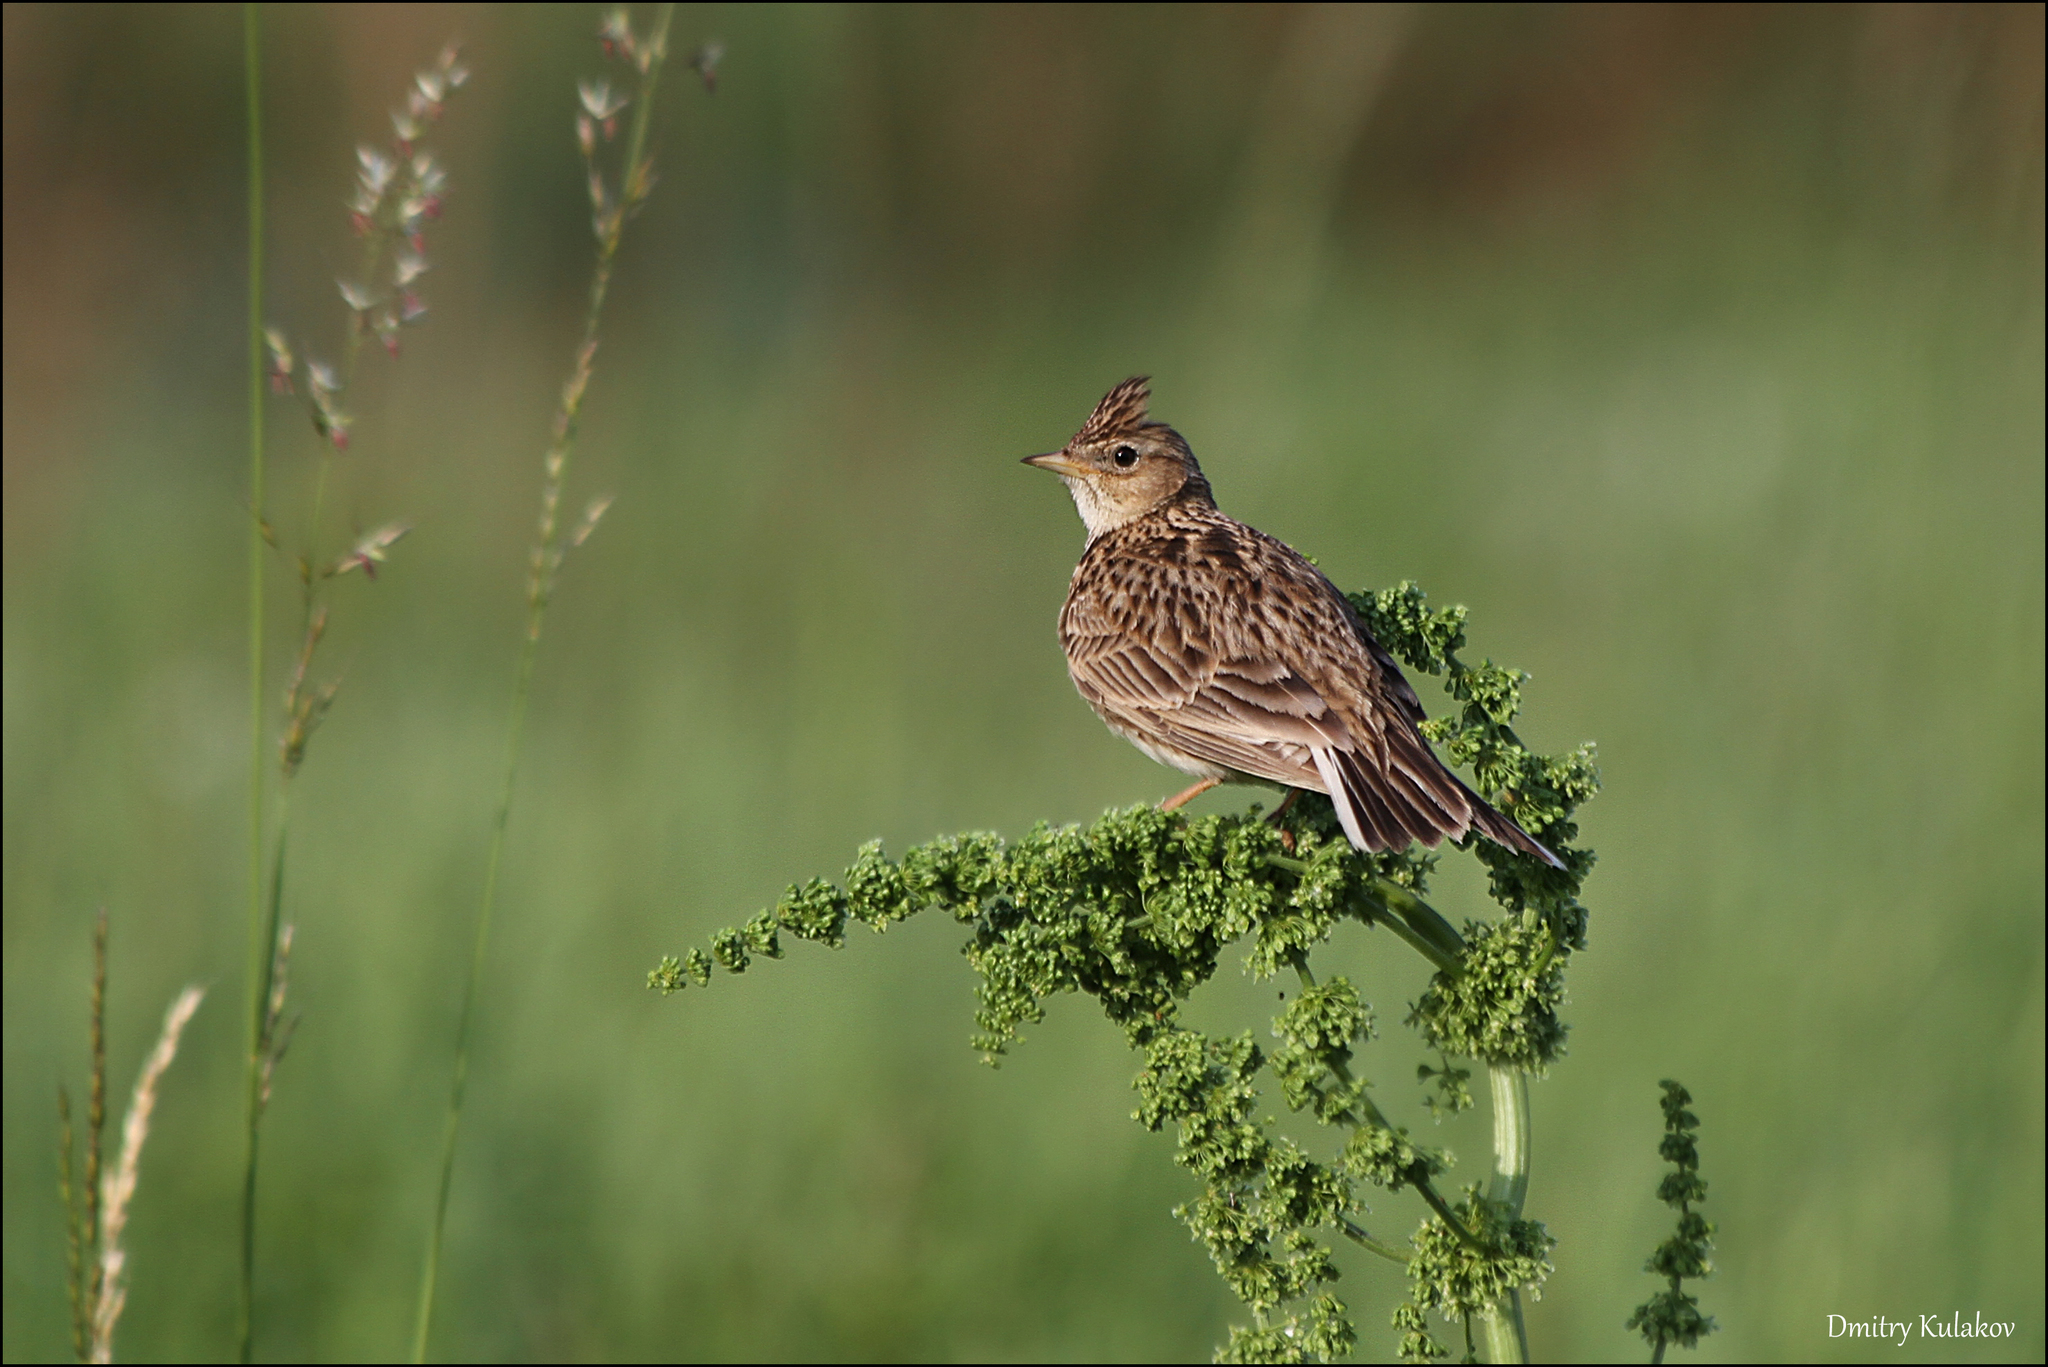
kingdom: Animalia
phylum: Chordata
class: Aves
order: Passeriformes
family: Alaudidae
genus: Alauda
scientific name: Alauda arvensis
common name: Eurasian skylark
